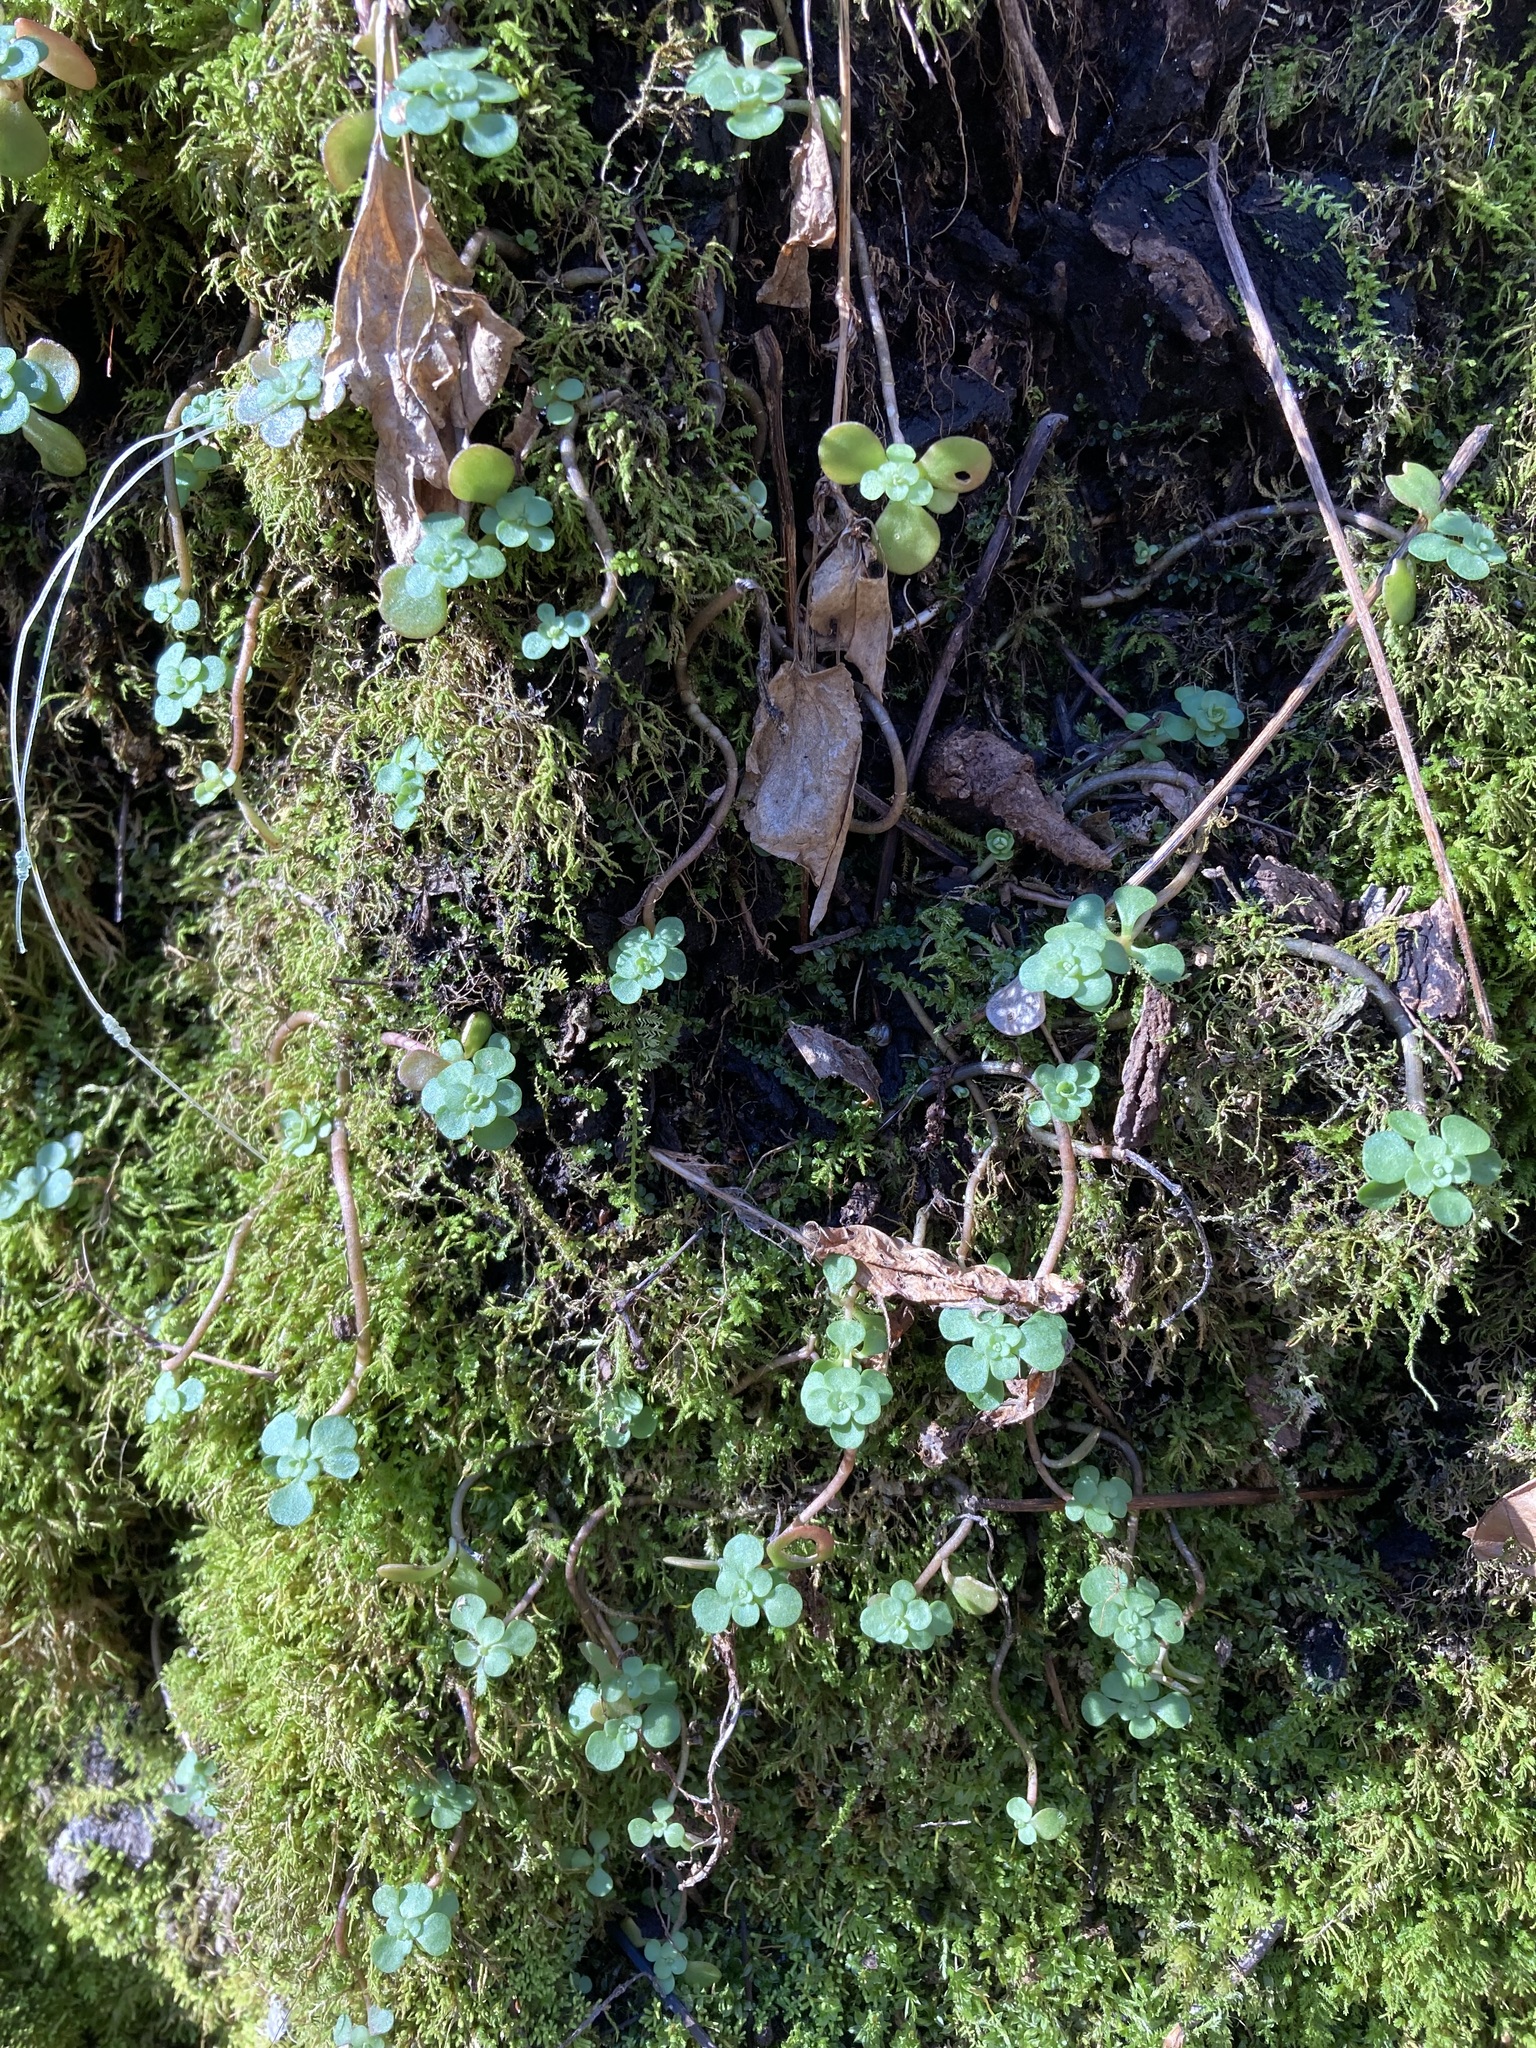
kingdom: Plantae
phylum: Tracheophyta
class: Magnoliopsida
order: Saxifragales
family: Crassulaceae
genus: Sedum
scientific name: Sedum ternatum
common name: Wild stonecrop
